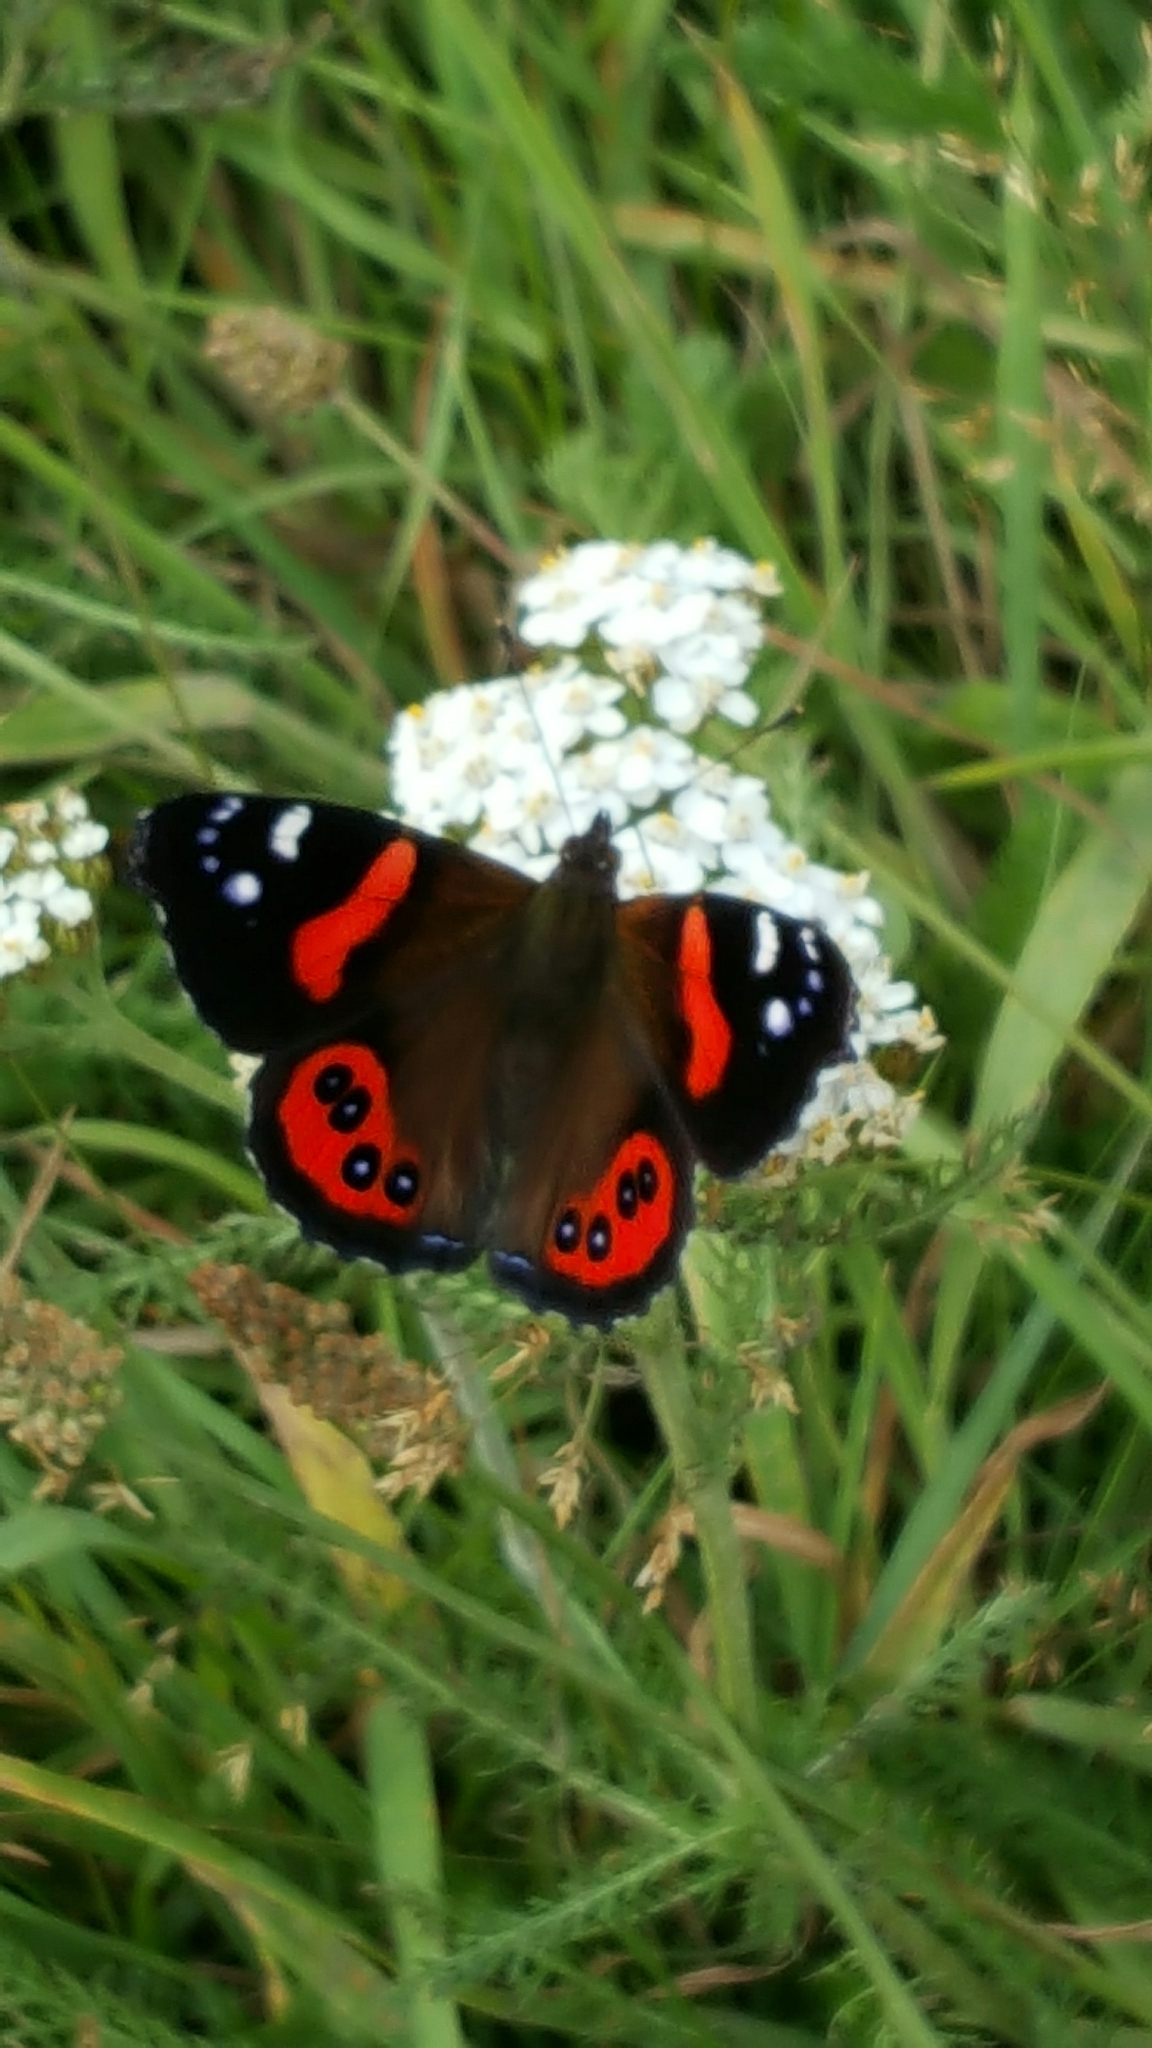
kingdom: Animalia
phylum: Arthropoda
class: Insecta
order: Lepidoptera
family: Nymphalidae
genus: Vanessa
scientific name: Vanessa gonerilla
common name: New zealand red admiral
